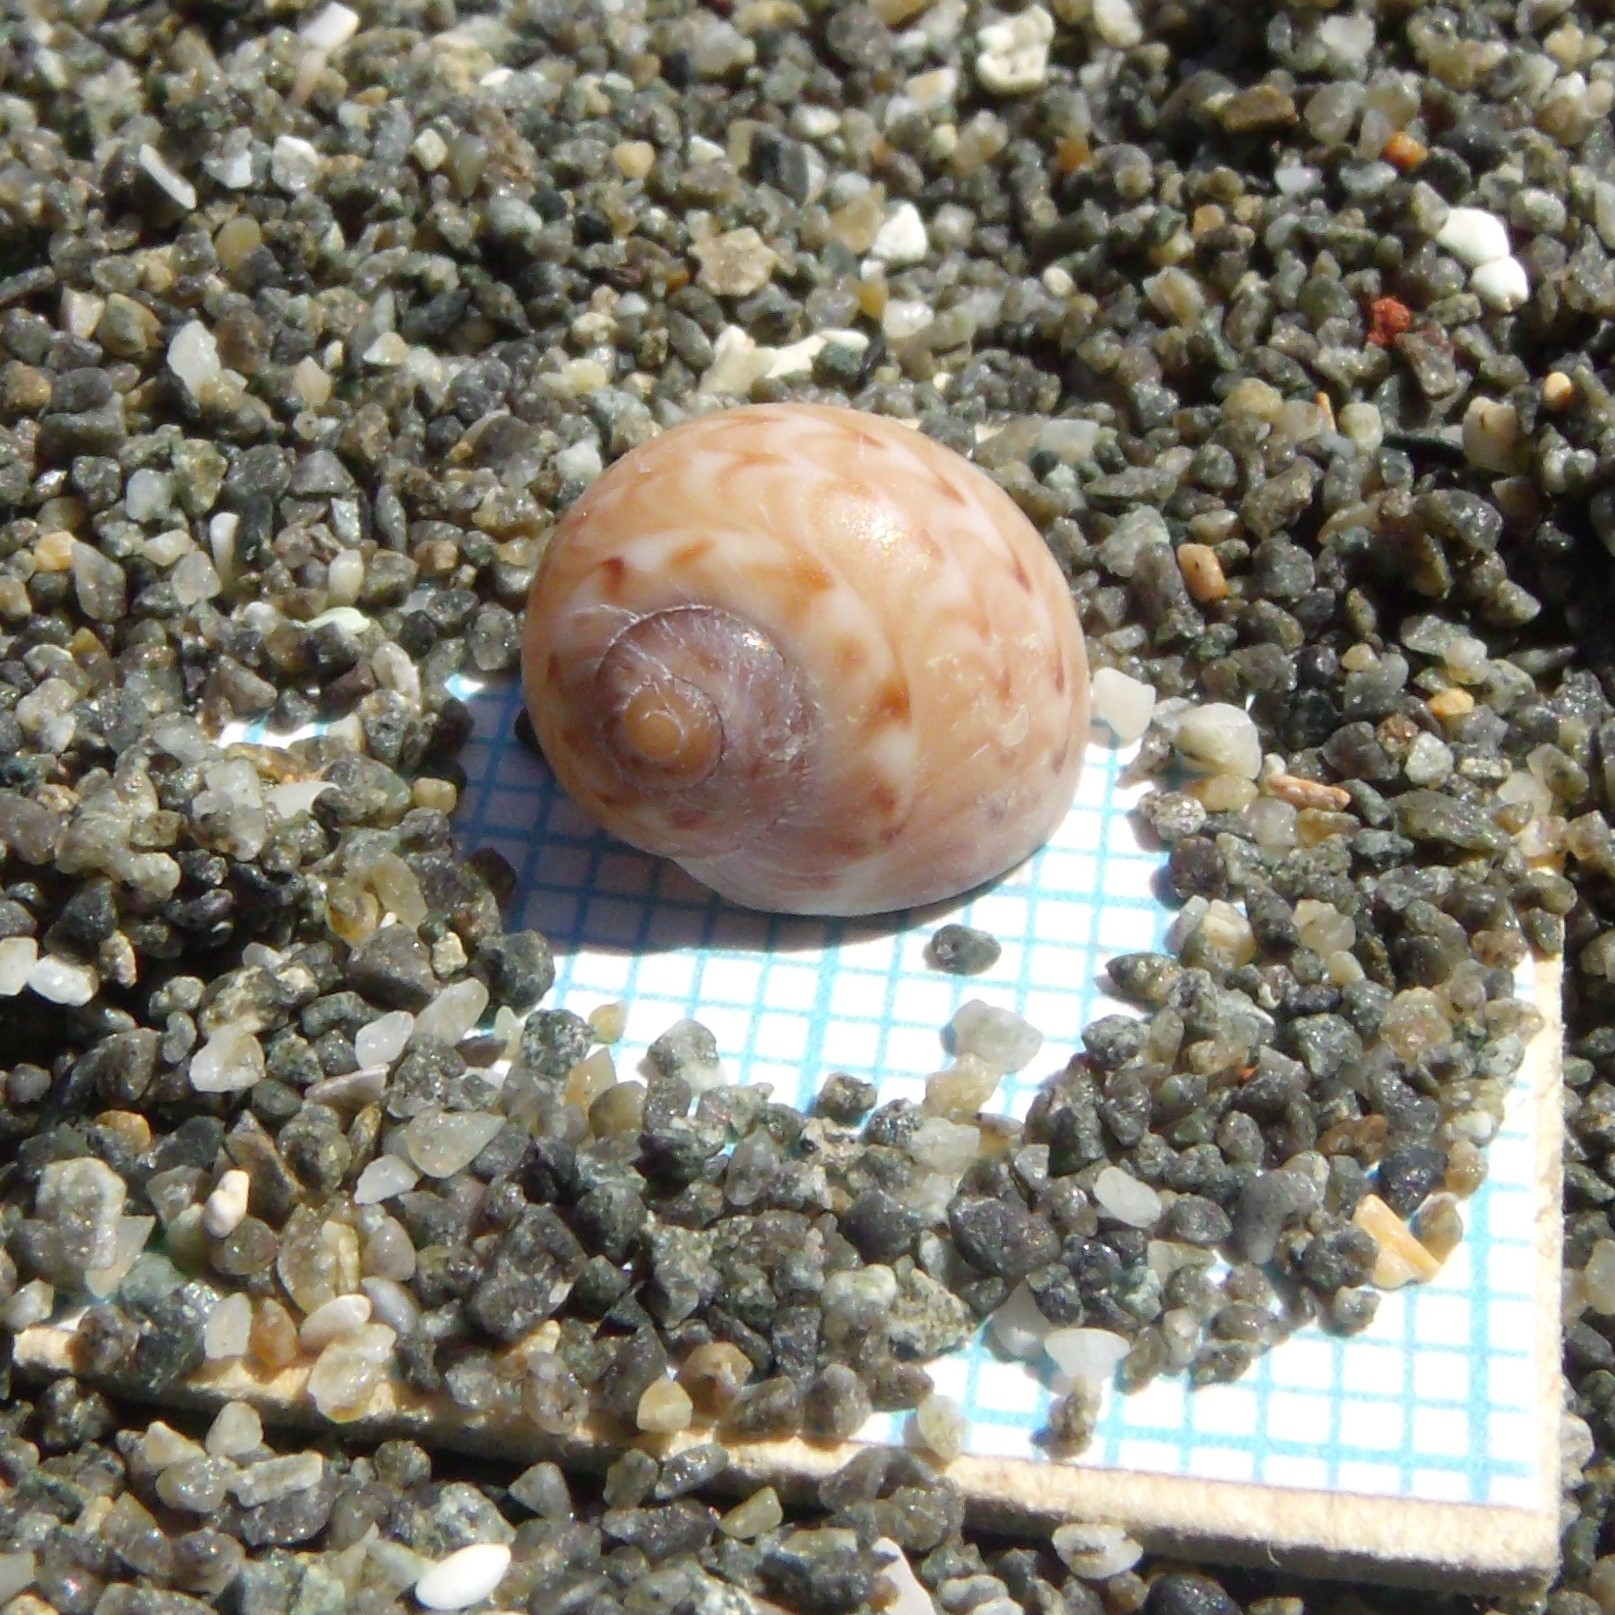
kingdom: Animalia
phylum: Mollusca
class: Gastropoda
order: Littorinimorpha
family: Naticidae
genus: Tanea
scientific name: Tanea zelandica
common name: New zealand moonsnail
